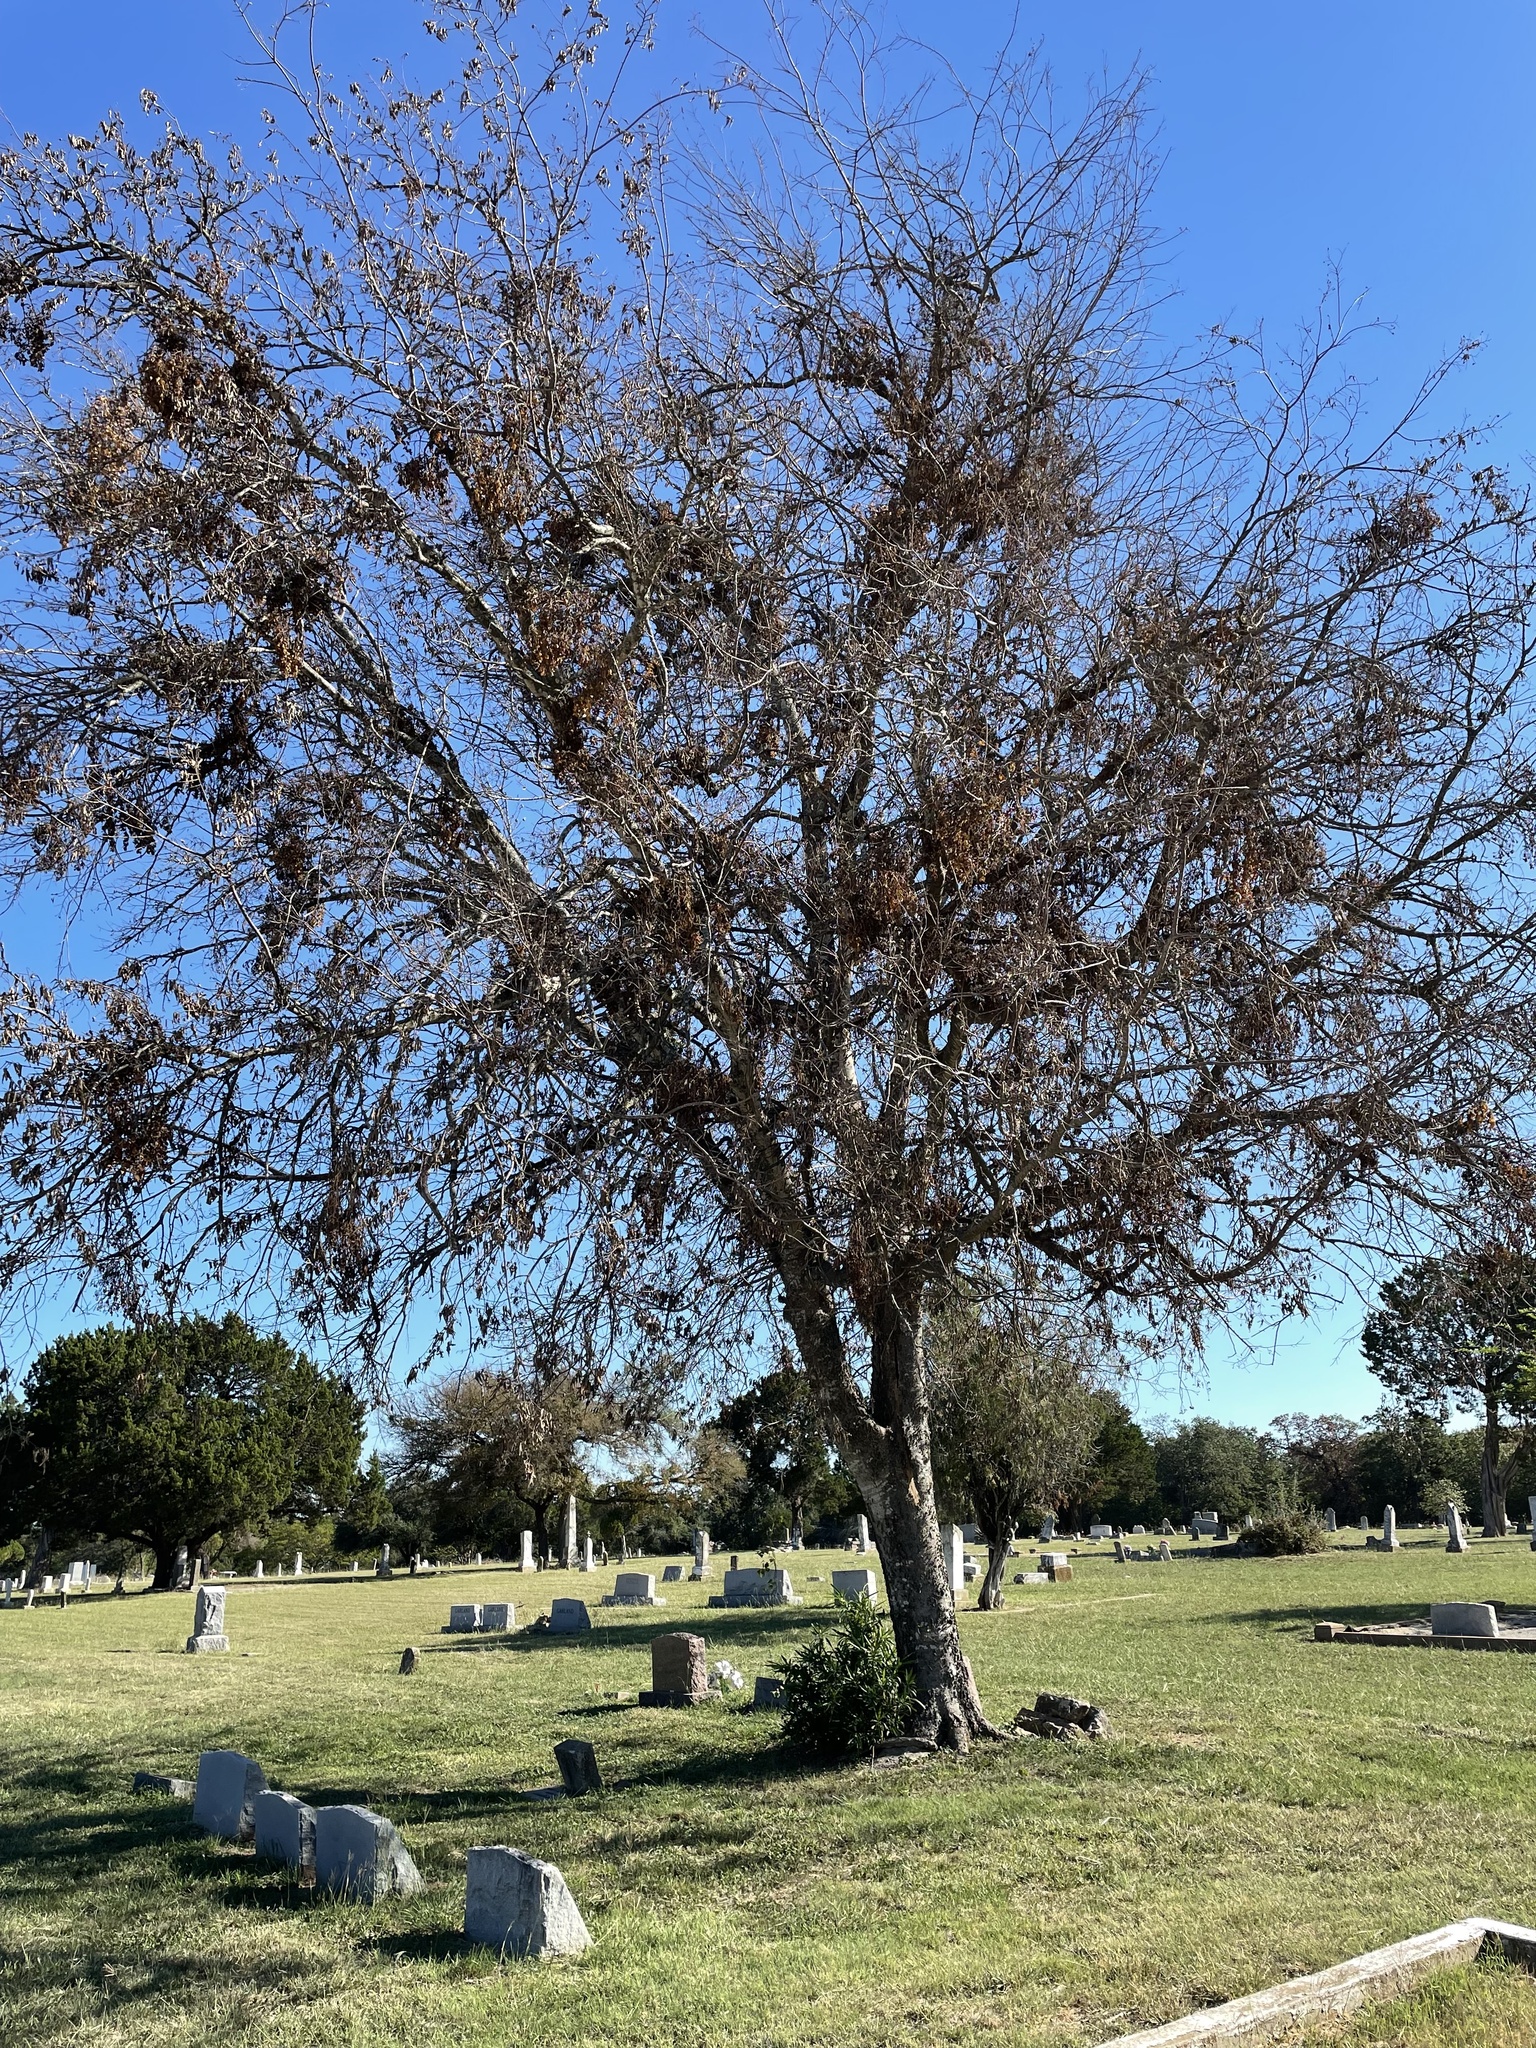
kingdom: Plantae
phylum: Tracheophyta
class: Magnoliopsida
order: Rosales
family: Cannabaceae
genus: Celtis
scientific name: Celtis laevigata
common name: Sugarberry
